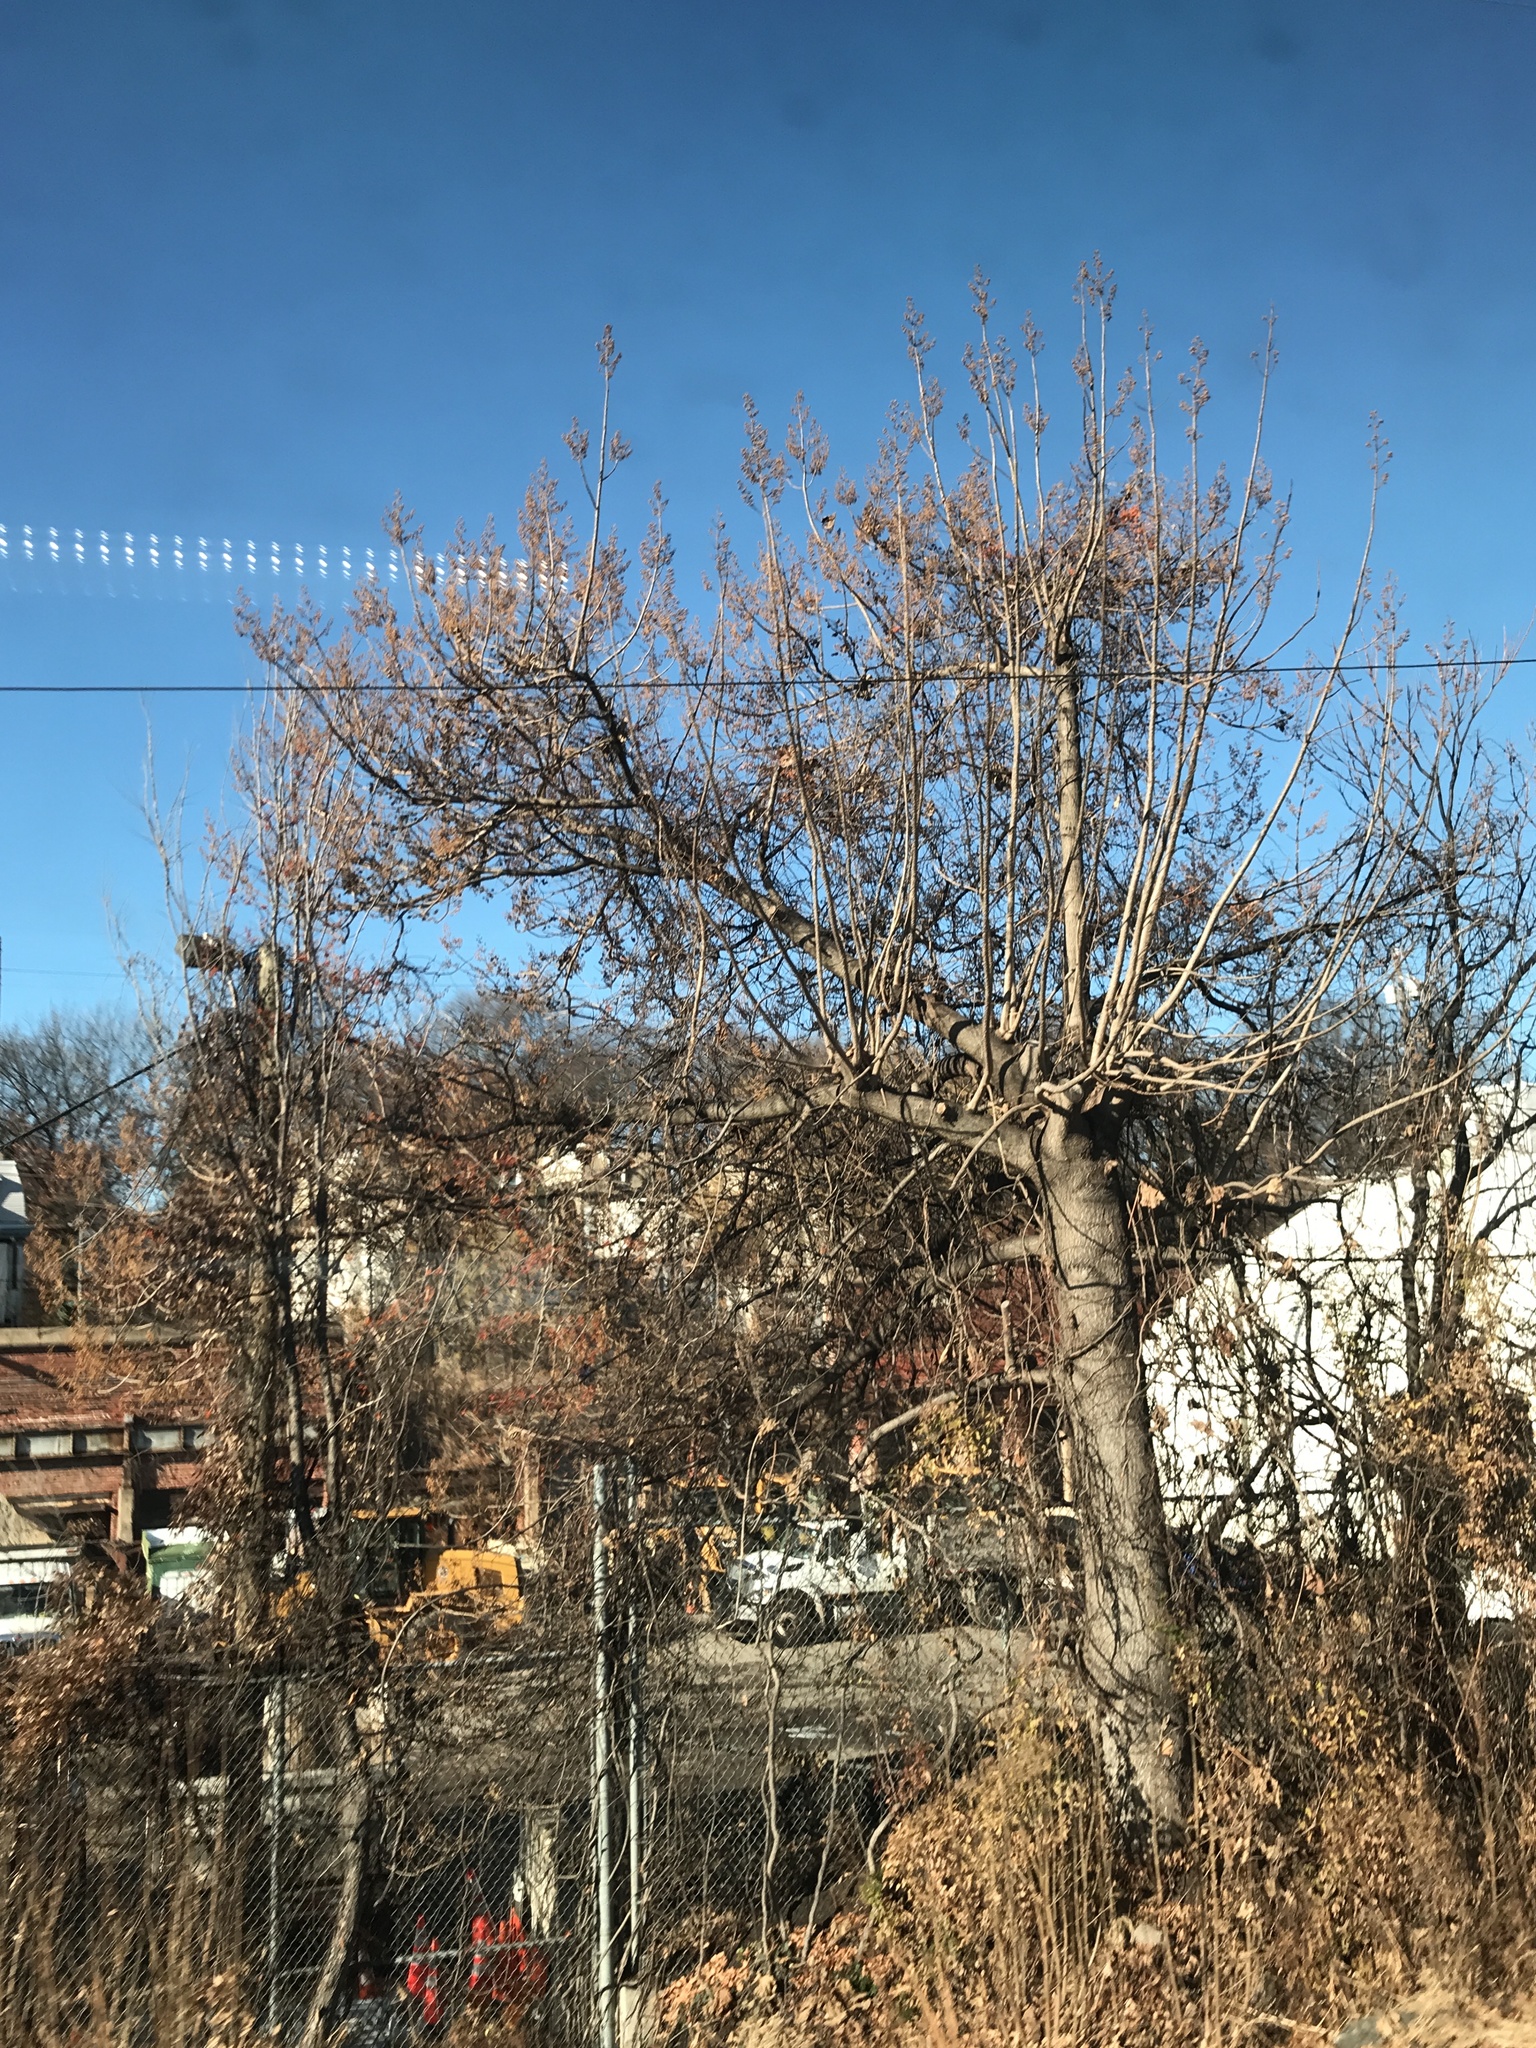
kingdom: Plantae
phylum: Tracheophyta
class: Magnoliopsida
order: Lamiales
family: Paulowniaceae
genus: Paulownia
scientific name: Paulownia tomentosa
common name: Foxglove-tree
